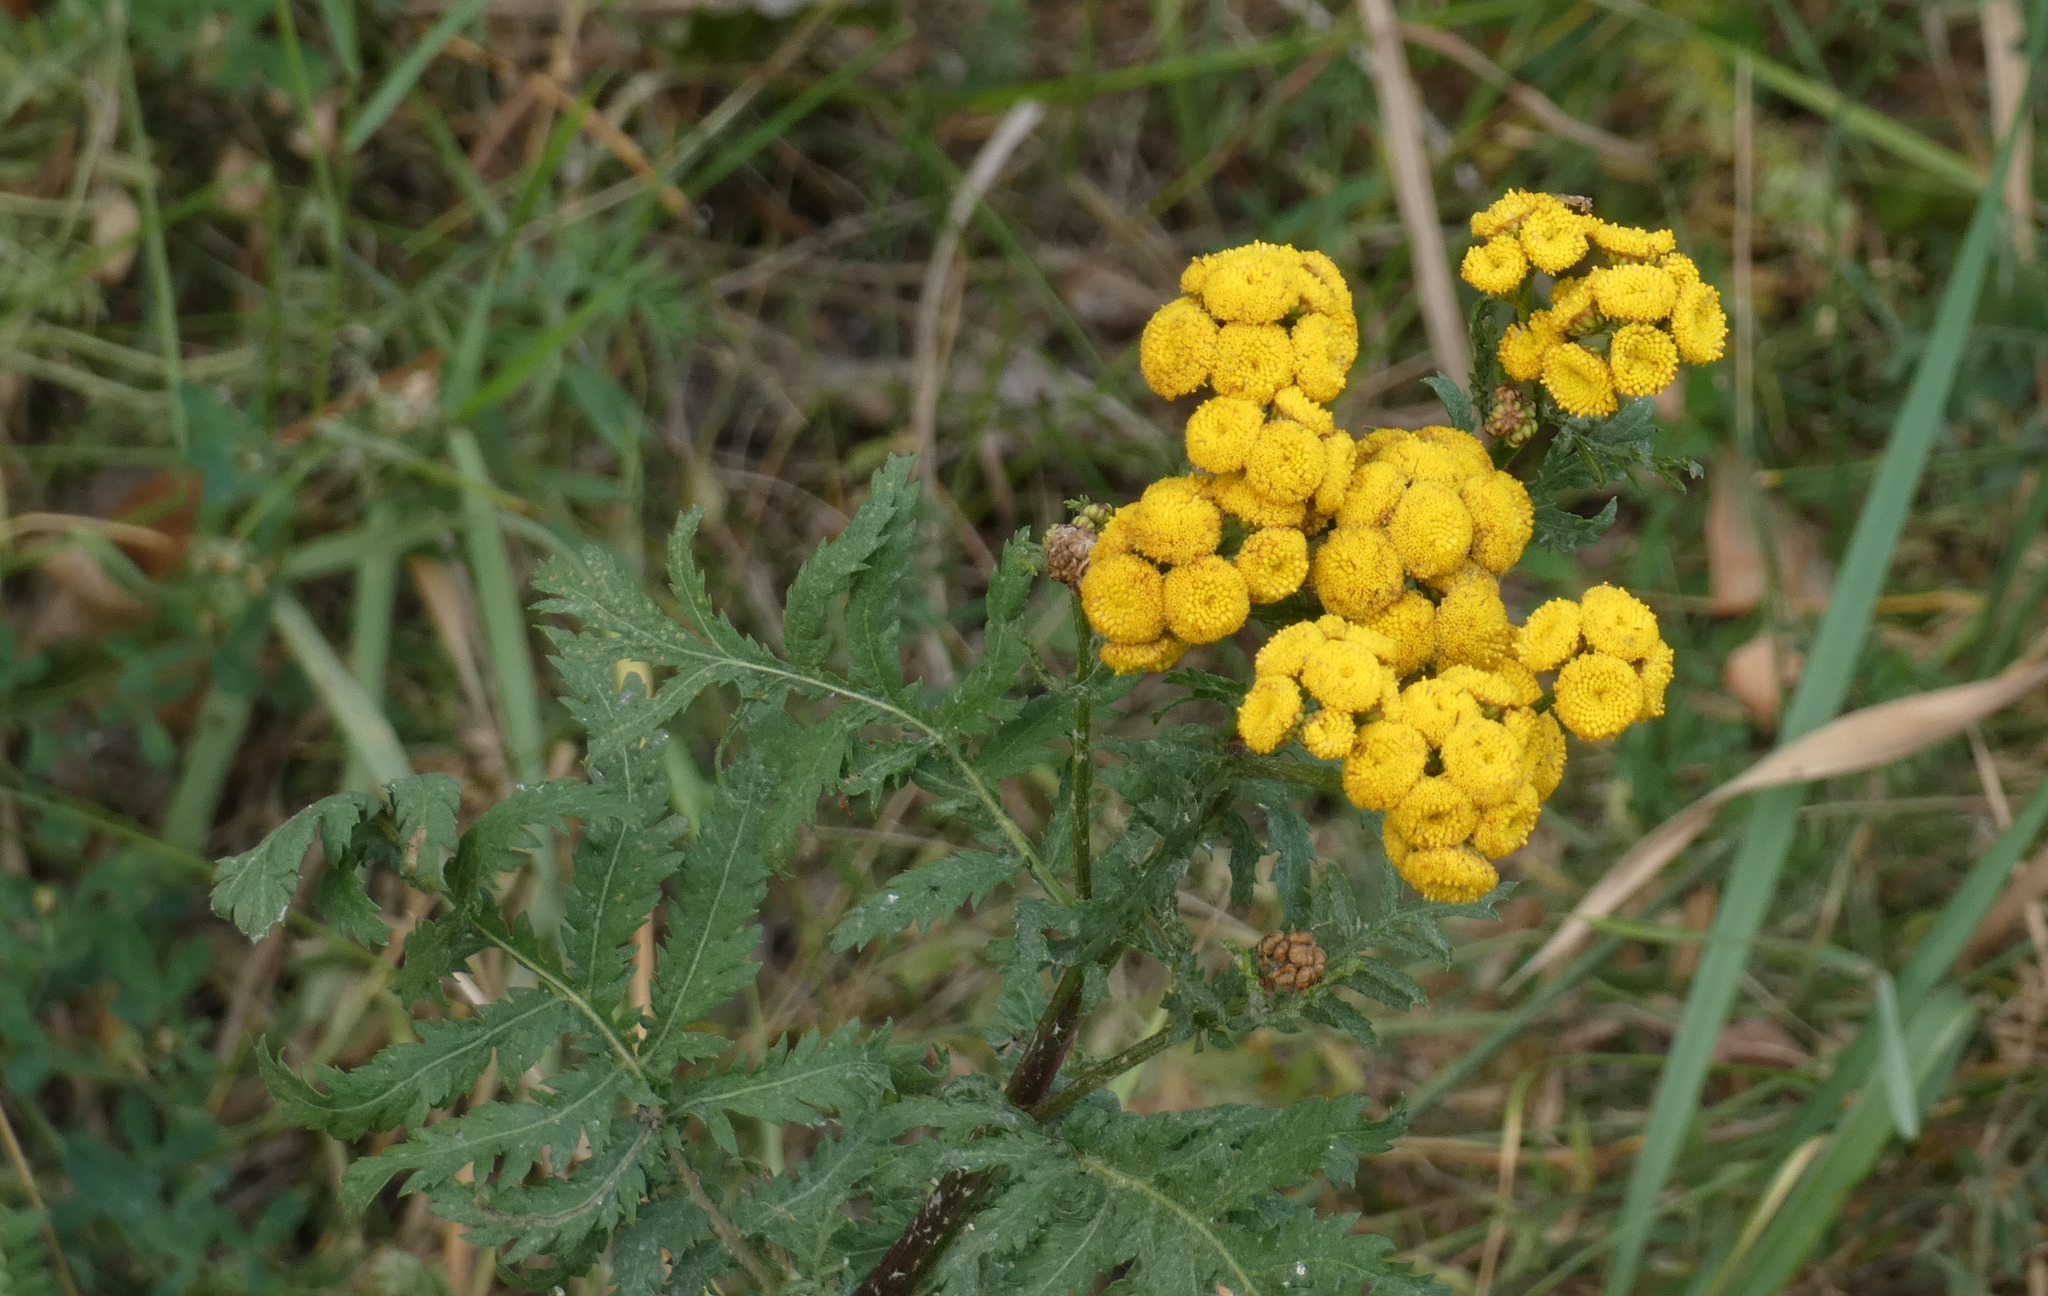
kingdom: Plantae
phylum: Tracheophyta
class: Magnoliopsida
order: Asterales
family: Asteraceae
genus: Tanacetum
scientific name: Tanacetum vulgare
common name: Common tansy
